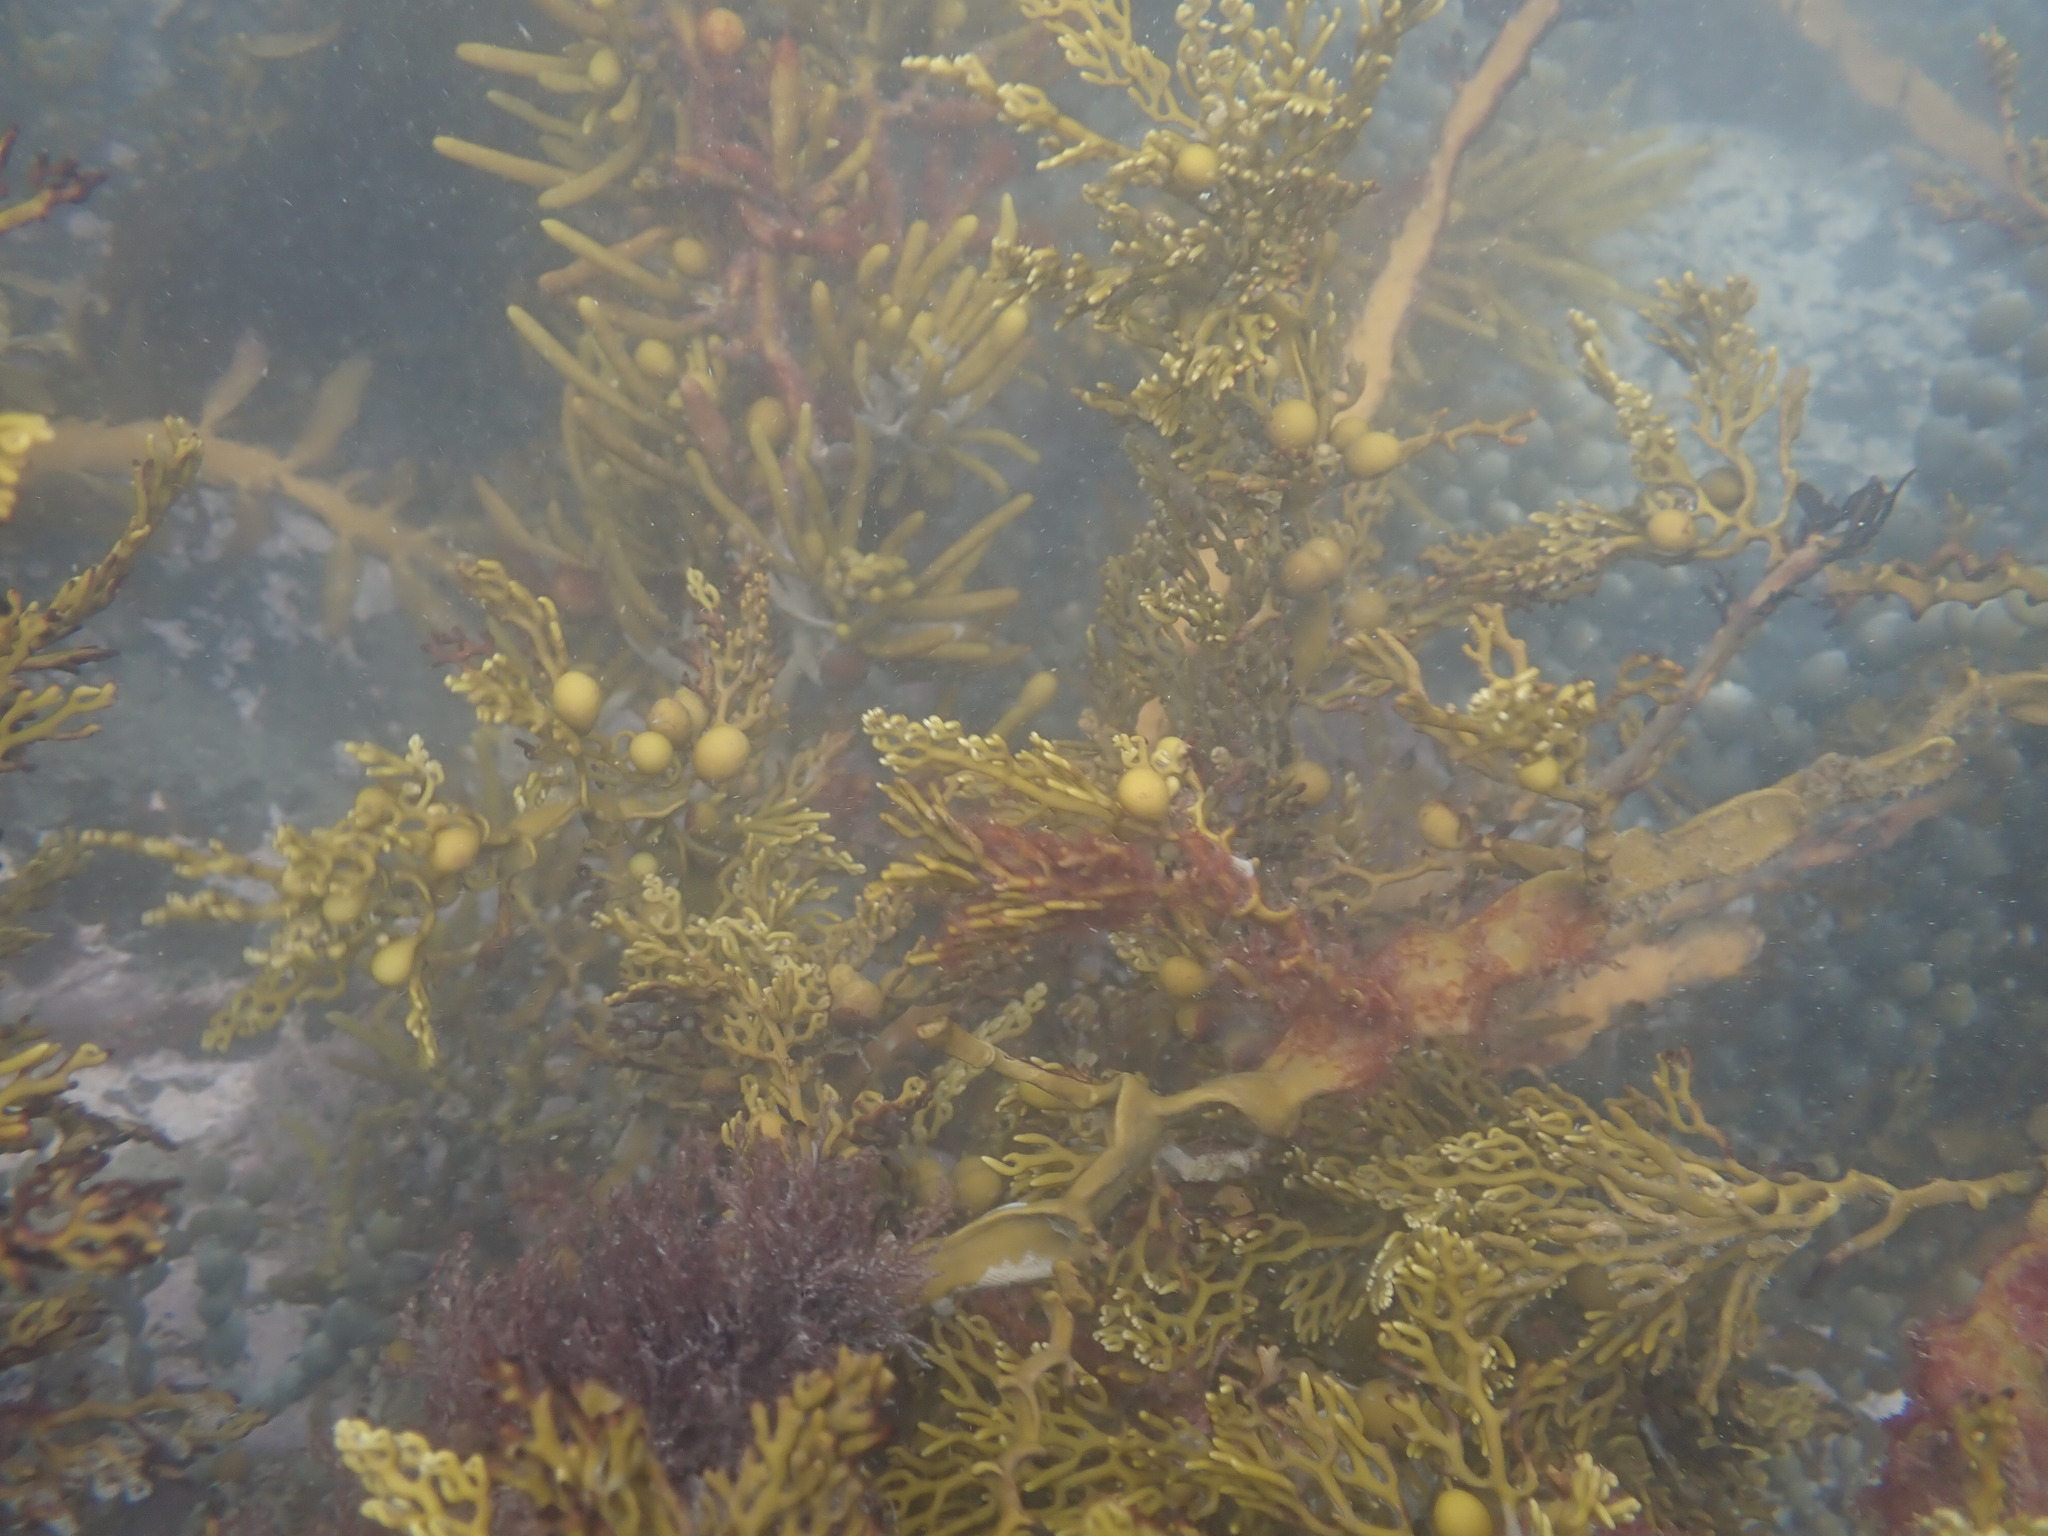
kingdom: Chromista
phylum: Ochrophyta
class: Phaeophyceae
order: Fucales
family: Sargassaceae
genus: Cystophora
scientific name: Cystophora scalaris
